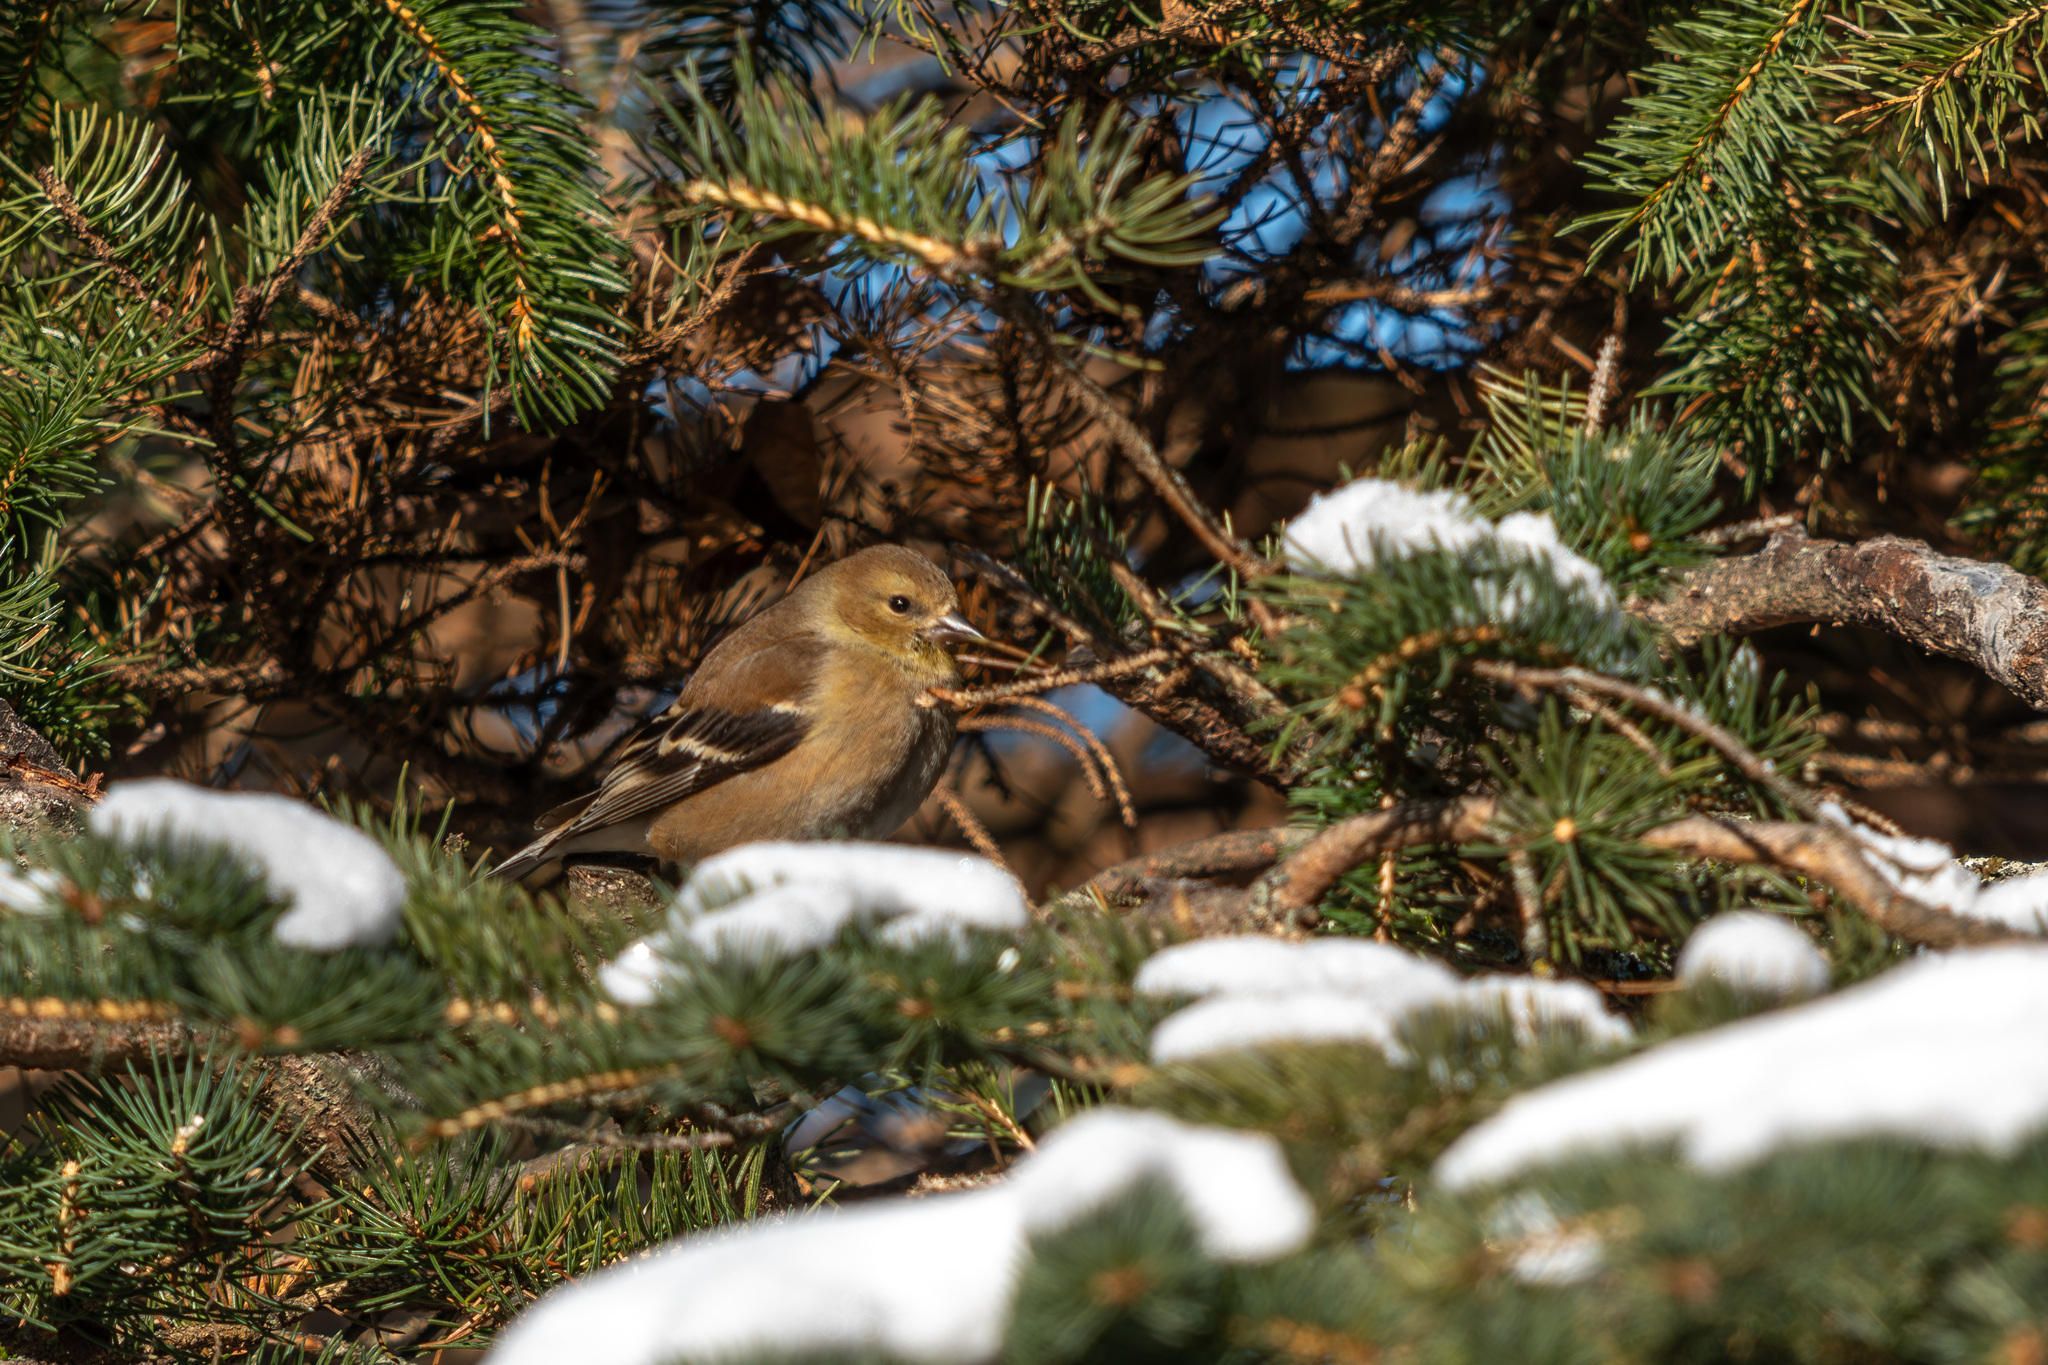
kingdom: Animalia
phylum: Chordata
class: Aves
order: Passeriformes
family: Fringillidae
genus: Spinus
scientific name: Spinus tristis
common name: American goldfinch
